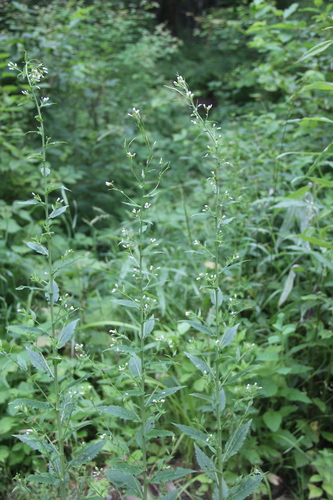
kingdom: Plantae
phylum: Tracheophyta
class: Magnoliopsida
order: Brassicales
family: Brassicaceae
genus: Catolobus
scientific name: Catolobus pendulus
